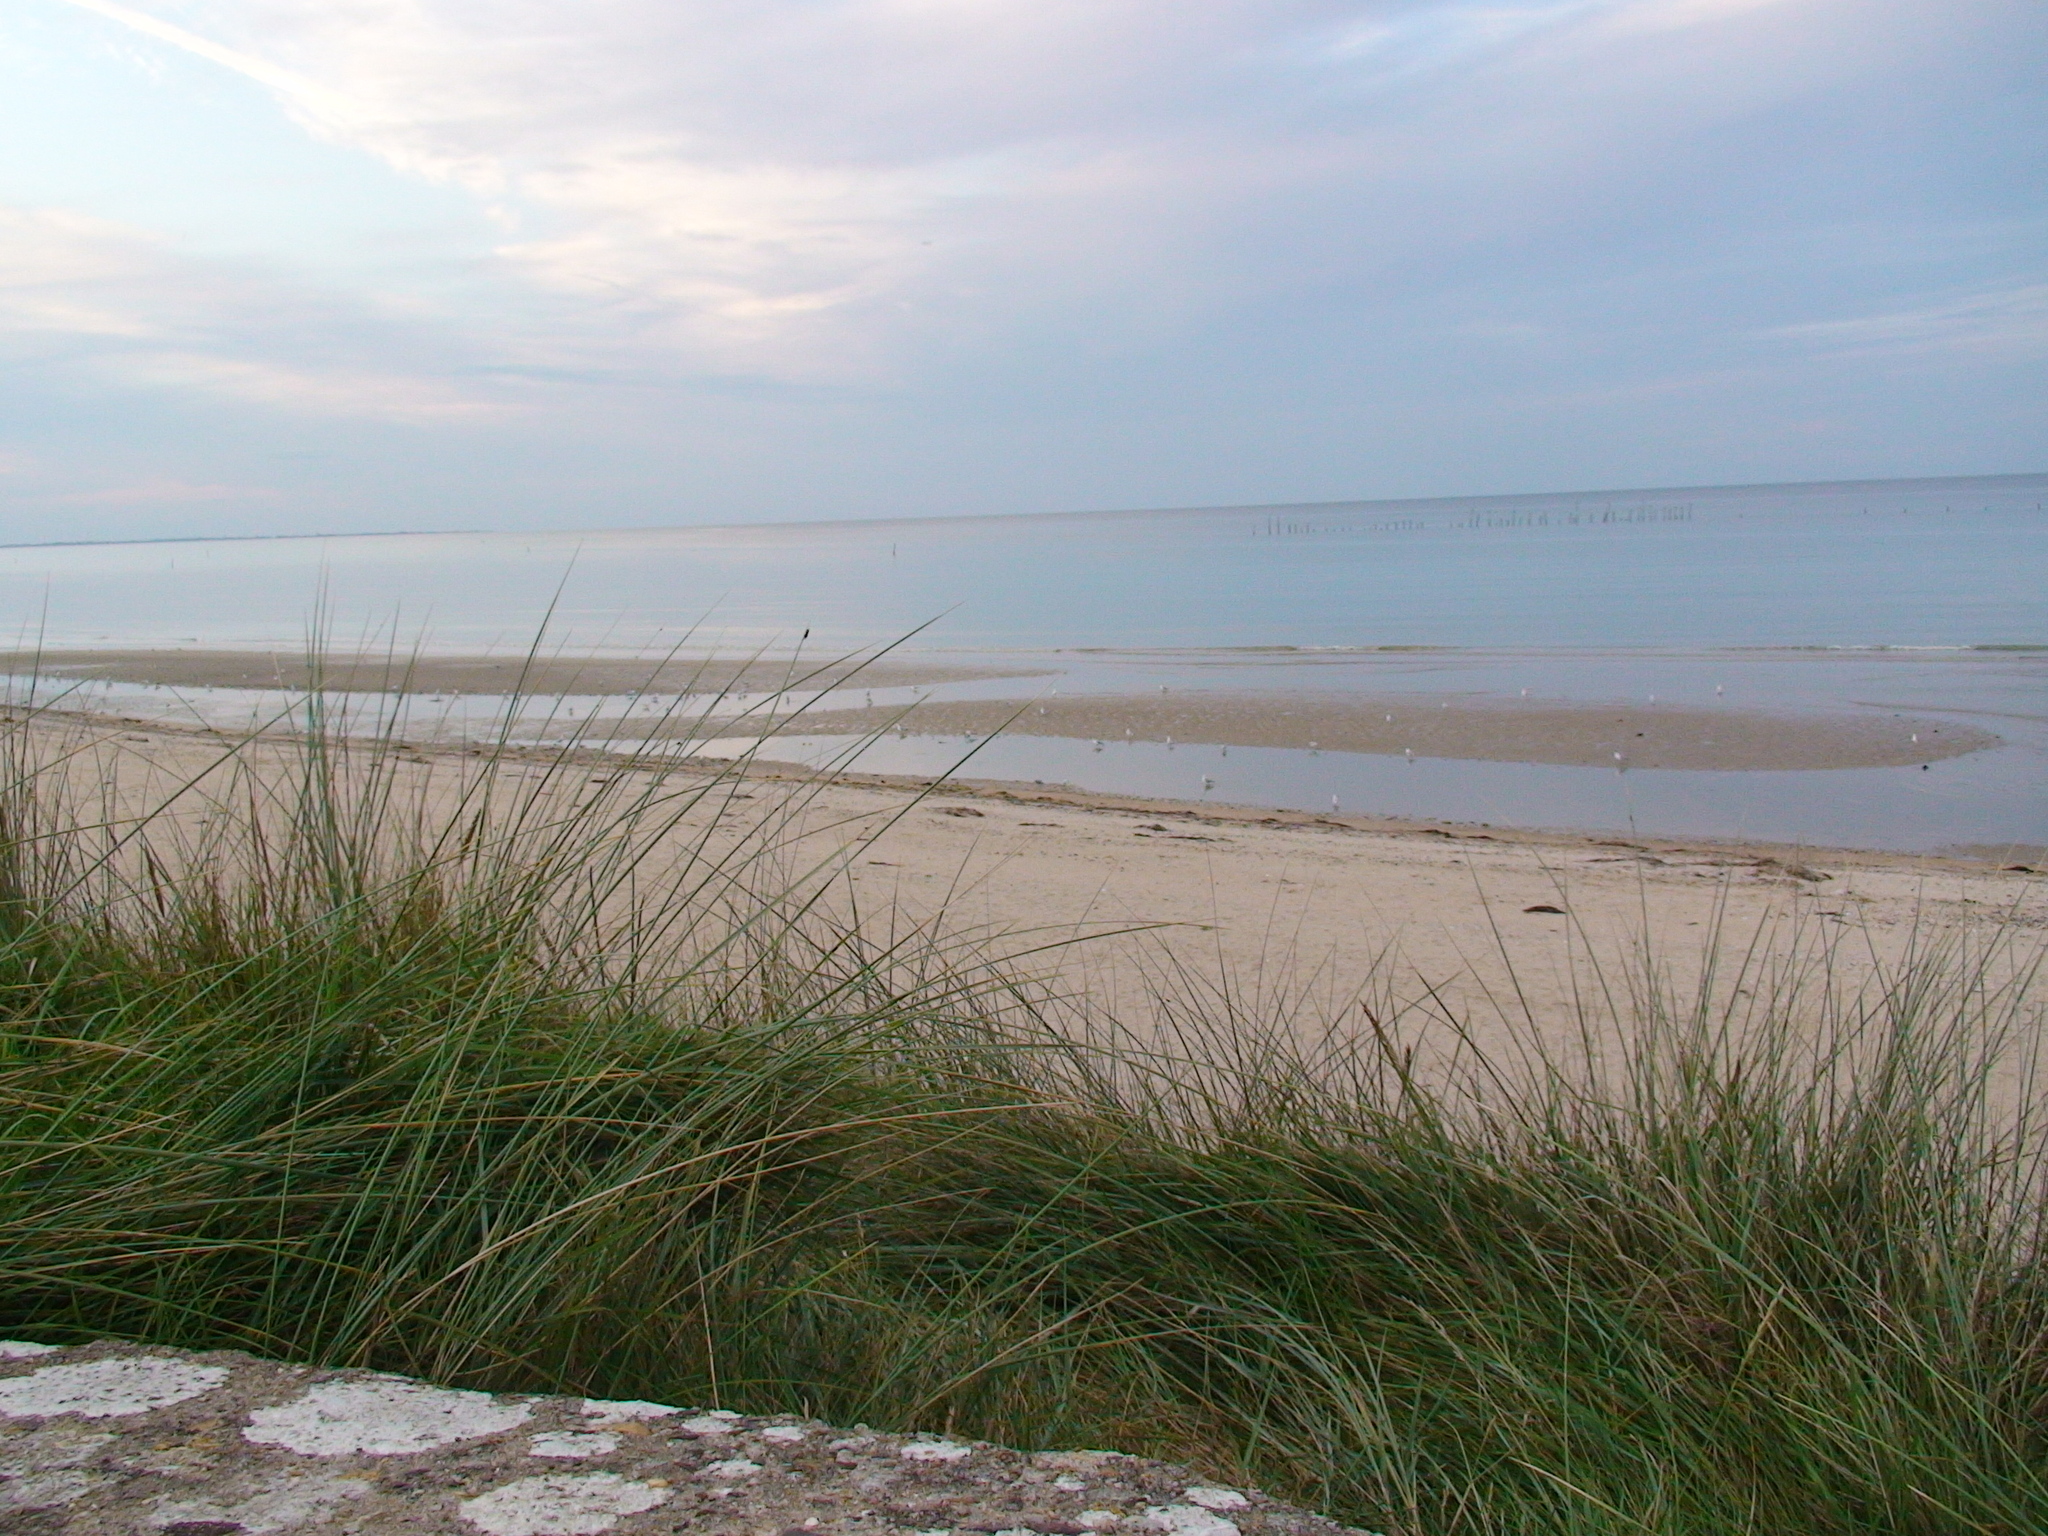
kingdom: Plantae
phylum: Tracheophyta
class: Liliopsida
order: Poales
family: Poaceae
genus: Calamagrostis
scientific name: Calamagrostis arenaria
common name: European beachgrass
